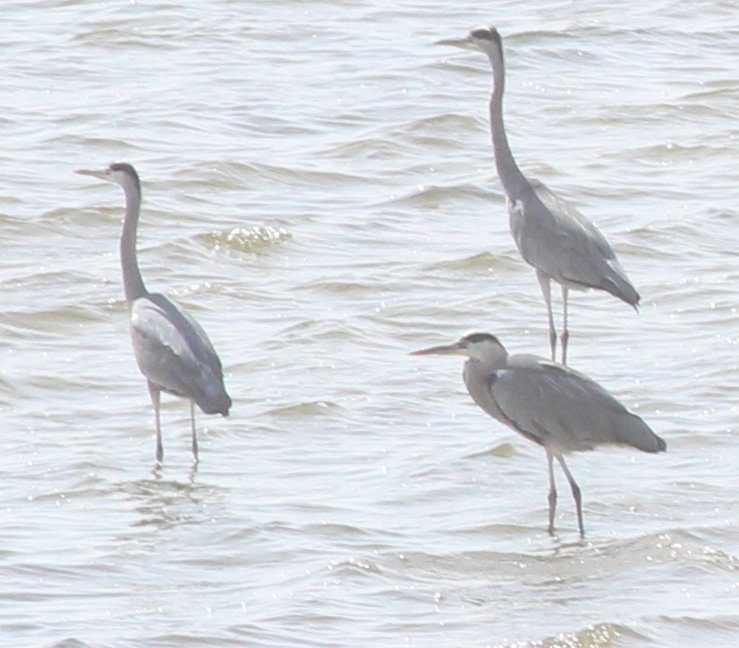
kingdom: Animalia
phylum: Chordata
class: Aves
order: Pelecaniformes
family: Ardeidae
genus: Ardea
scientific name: Ardea cinerea
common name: Grey heron
